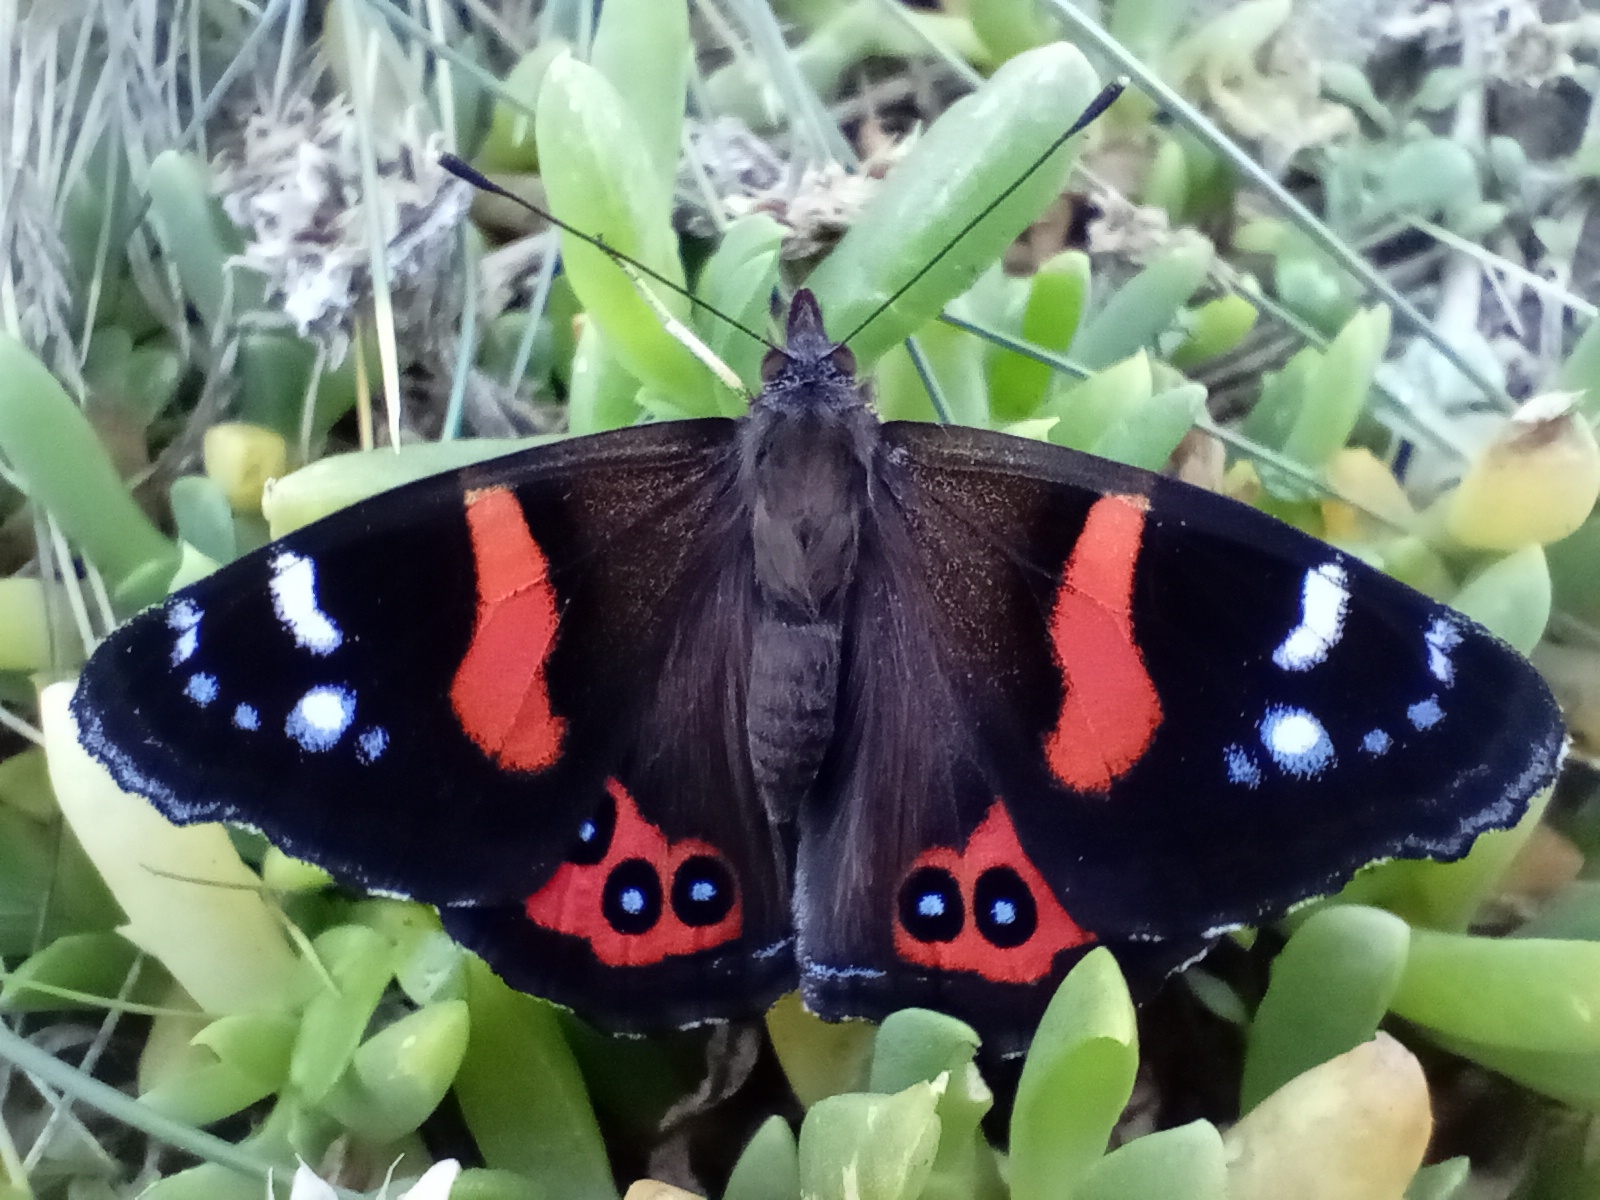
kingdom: Animalia
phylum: Arthropoda
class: Insecta
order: Lepidoptera
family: Nymphalidae
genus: Vanessa
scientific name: Vanessa gonerilla
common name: New zealand red admiral
